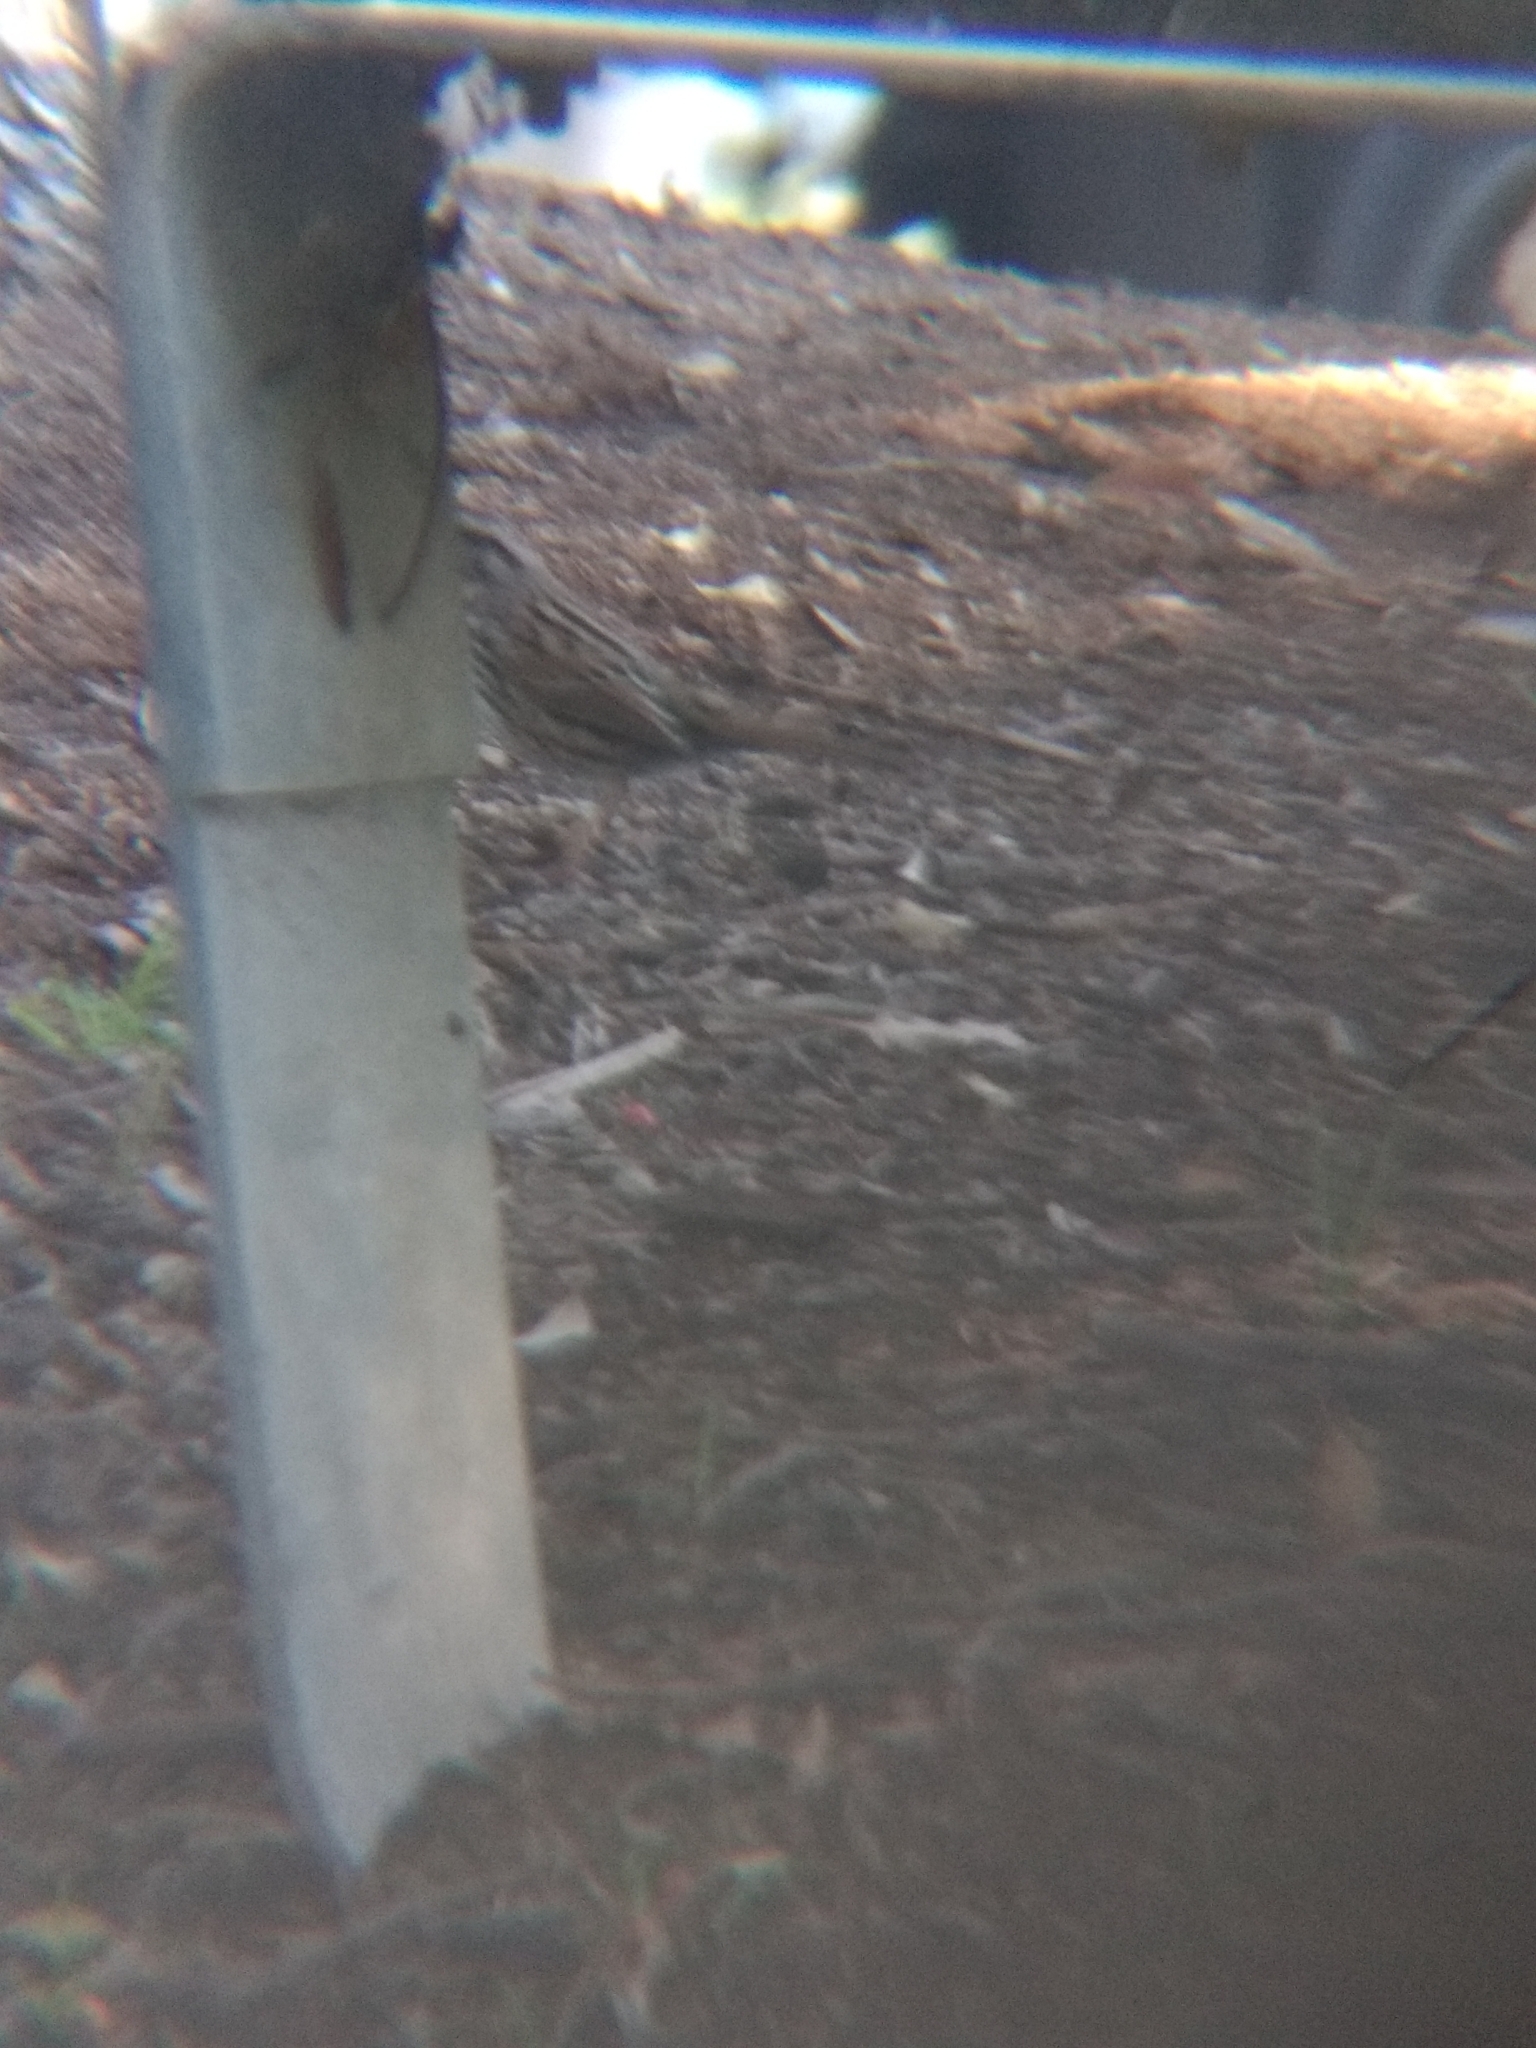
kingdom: Animalia
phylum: Chordata
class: Aves
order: Passeriformes
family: Passerellidae
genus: Melospiza
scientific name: Melospiza melodia
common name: Song sparrow
